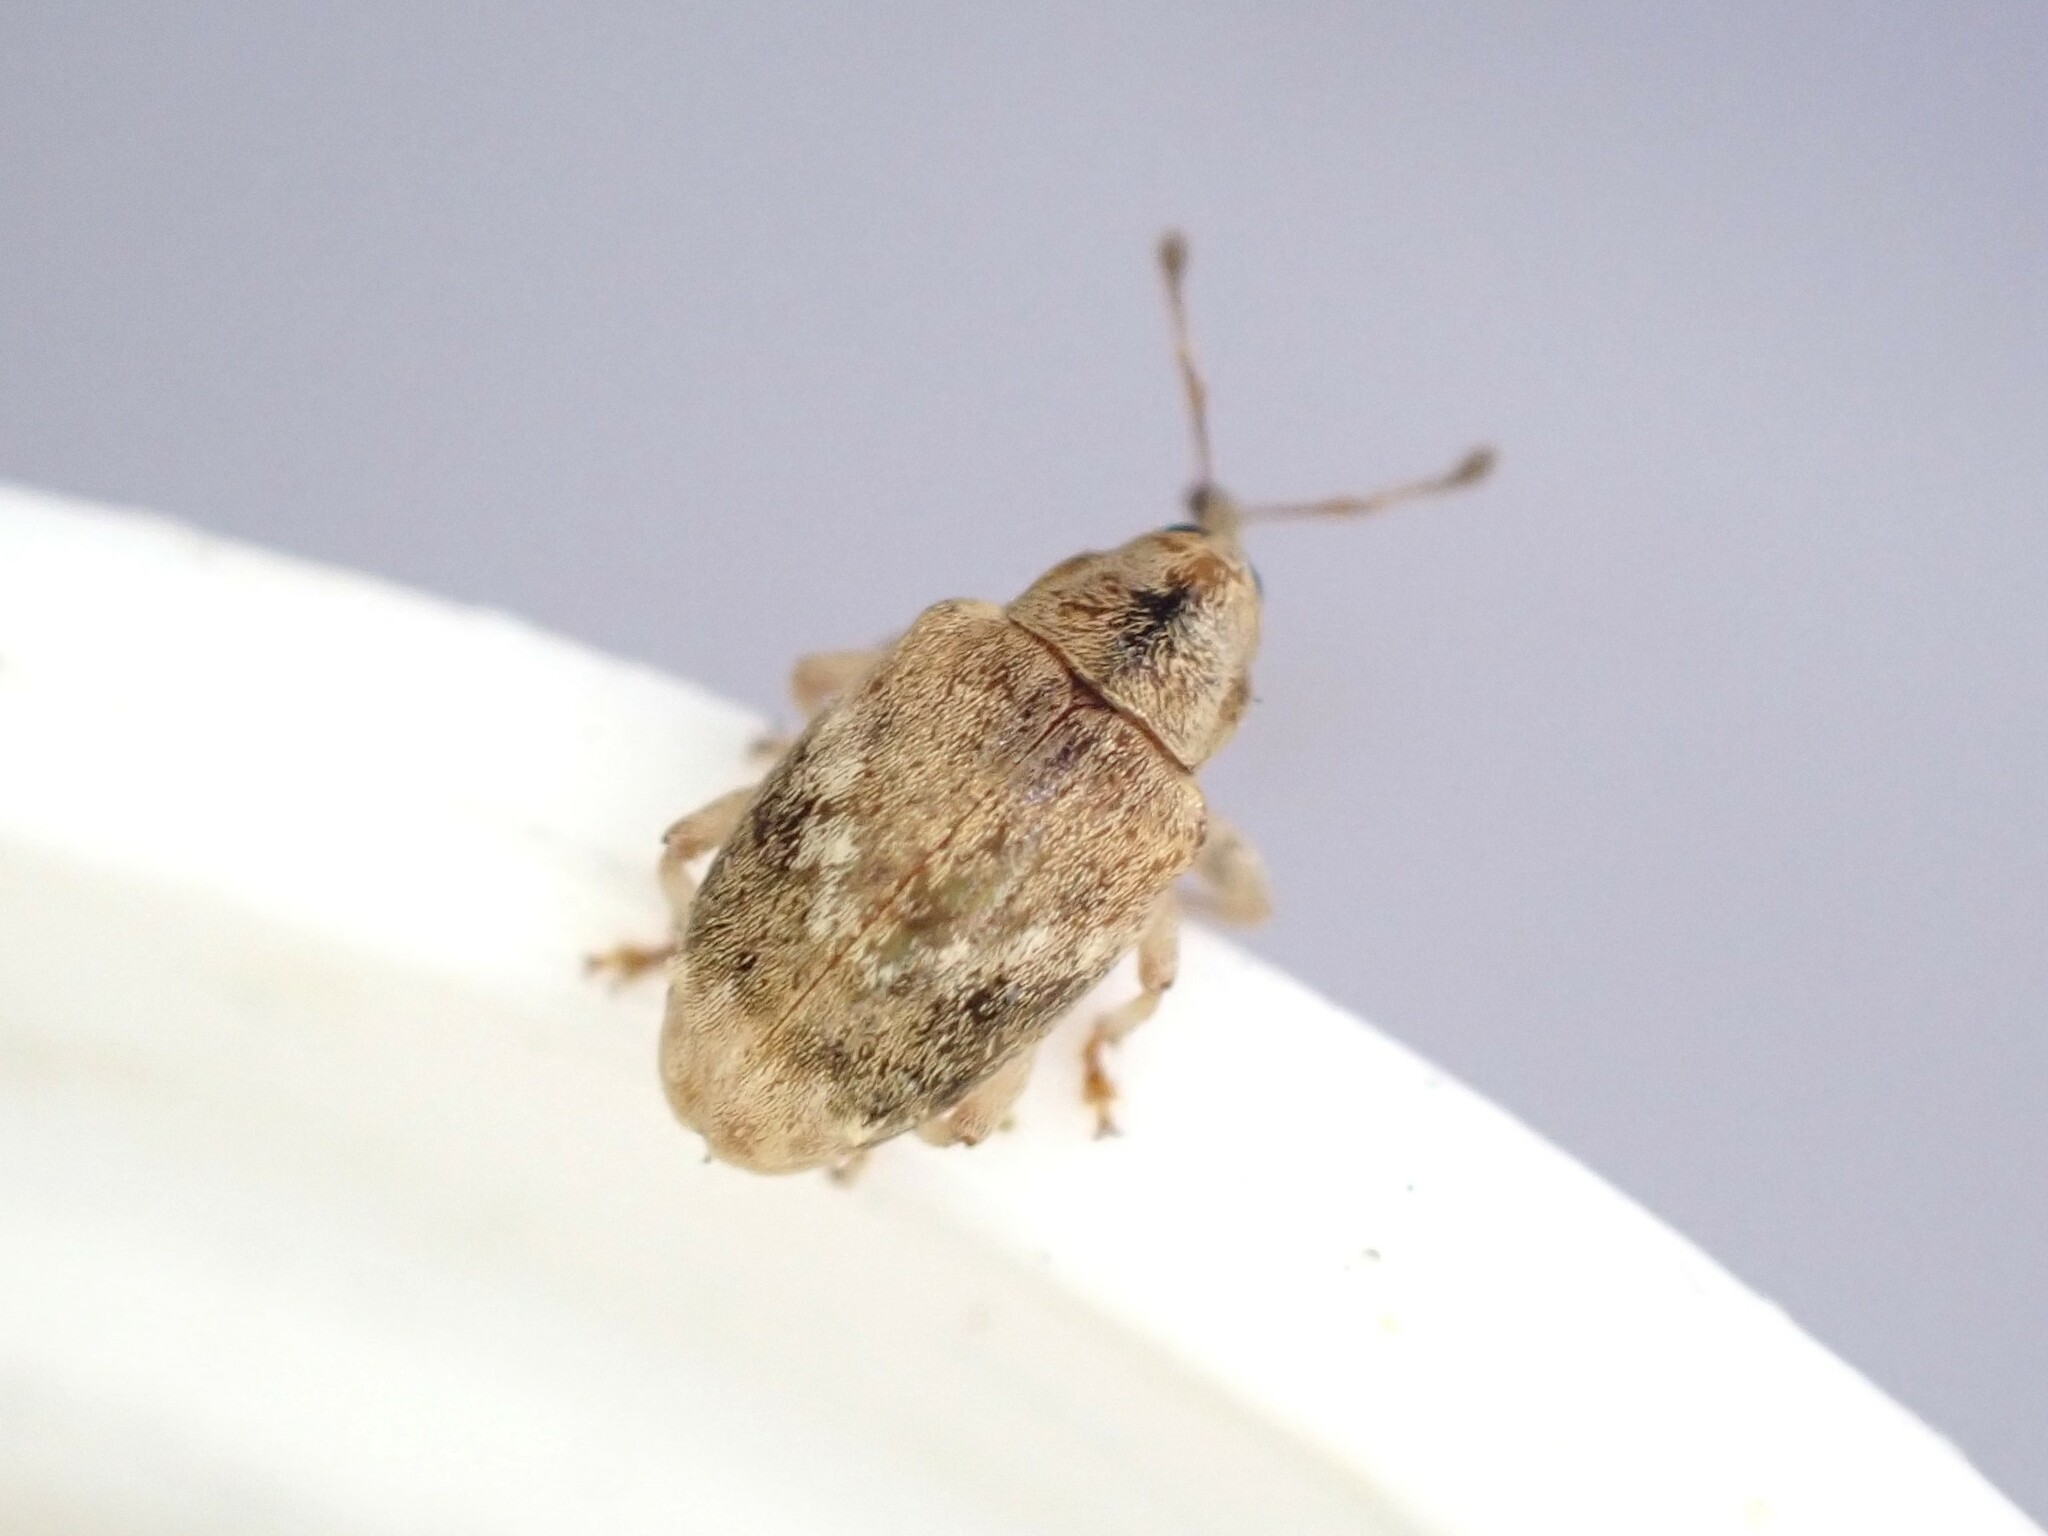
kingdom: Animalia
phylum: Arthropoda
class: Insecta
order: Coleoptera
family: Curculionidae
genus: Aneuma
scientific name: Aneuma compta
